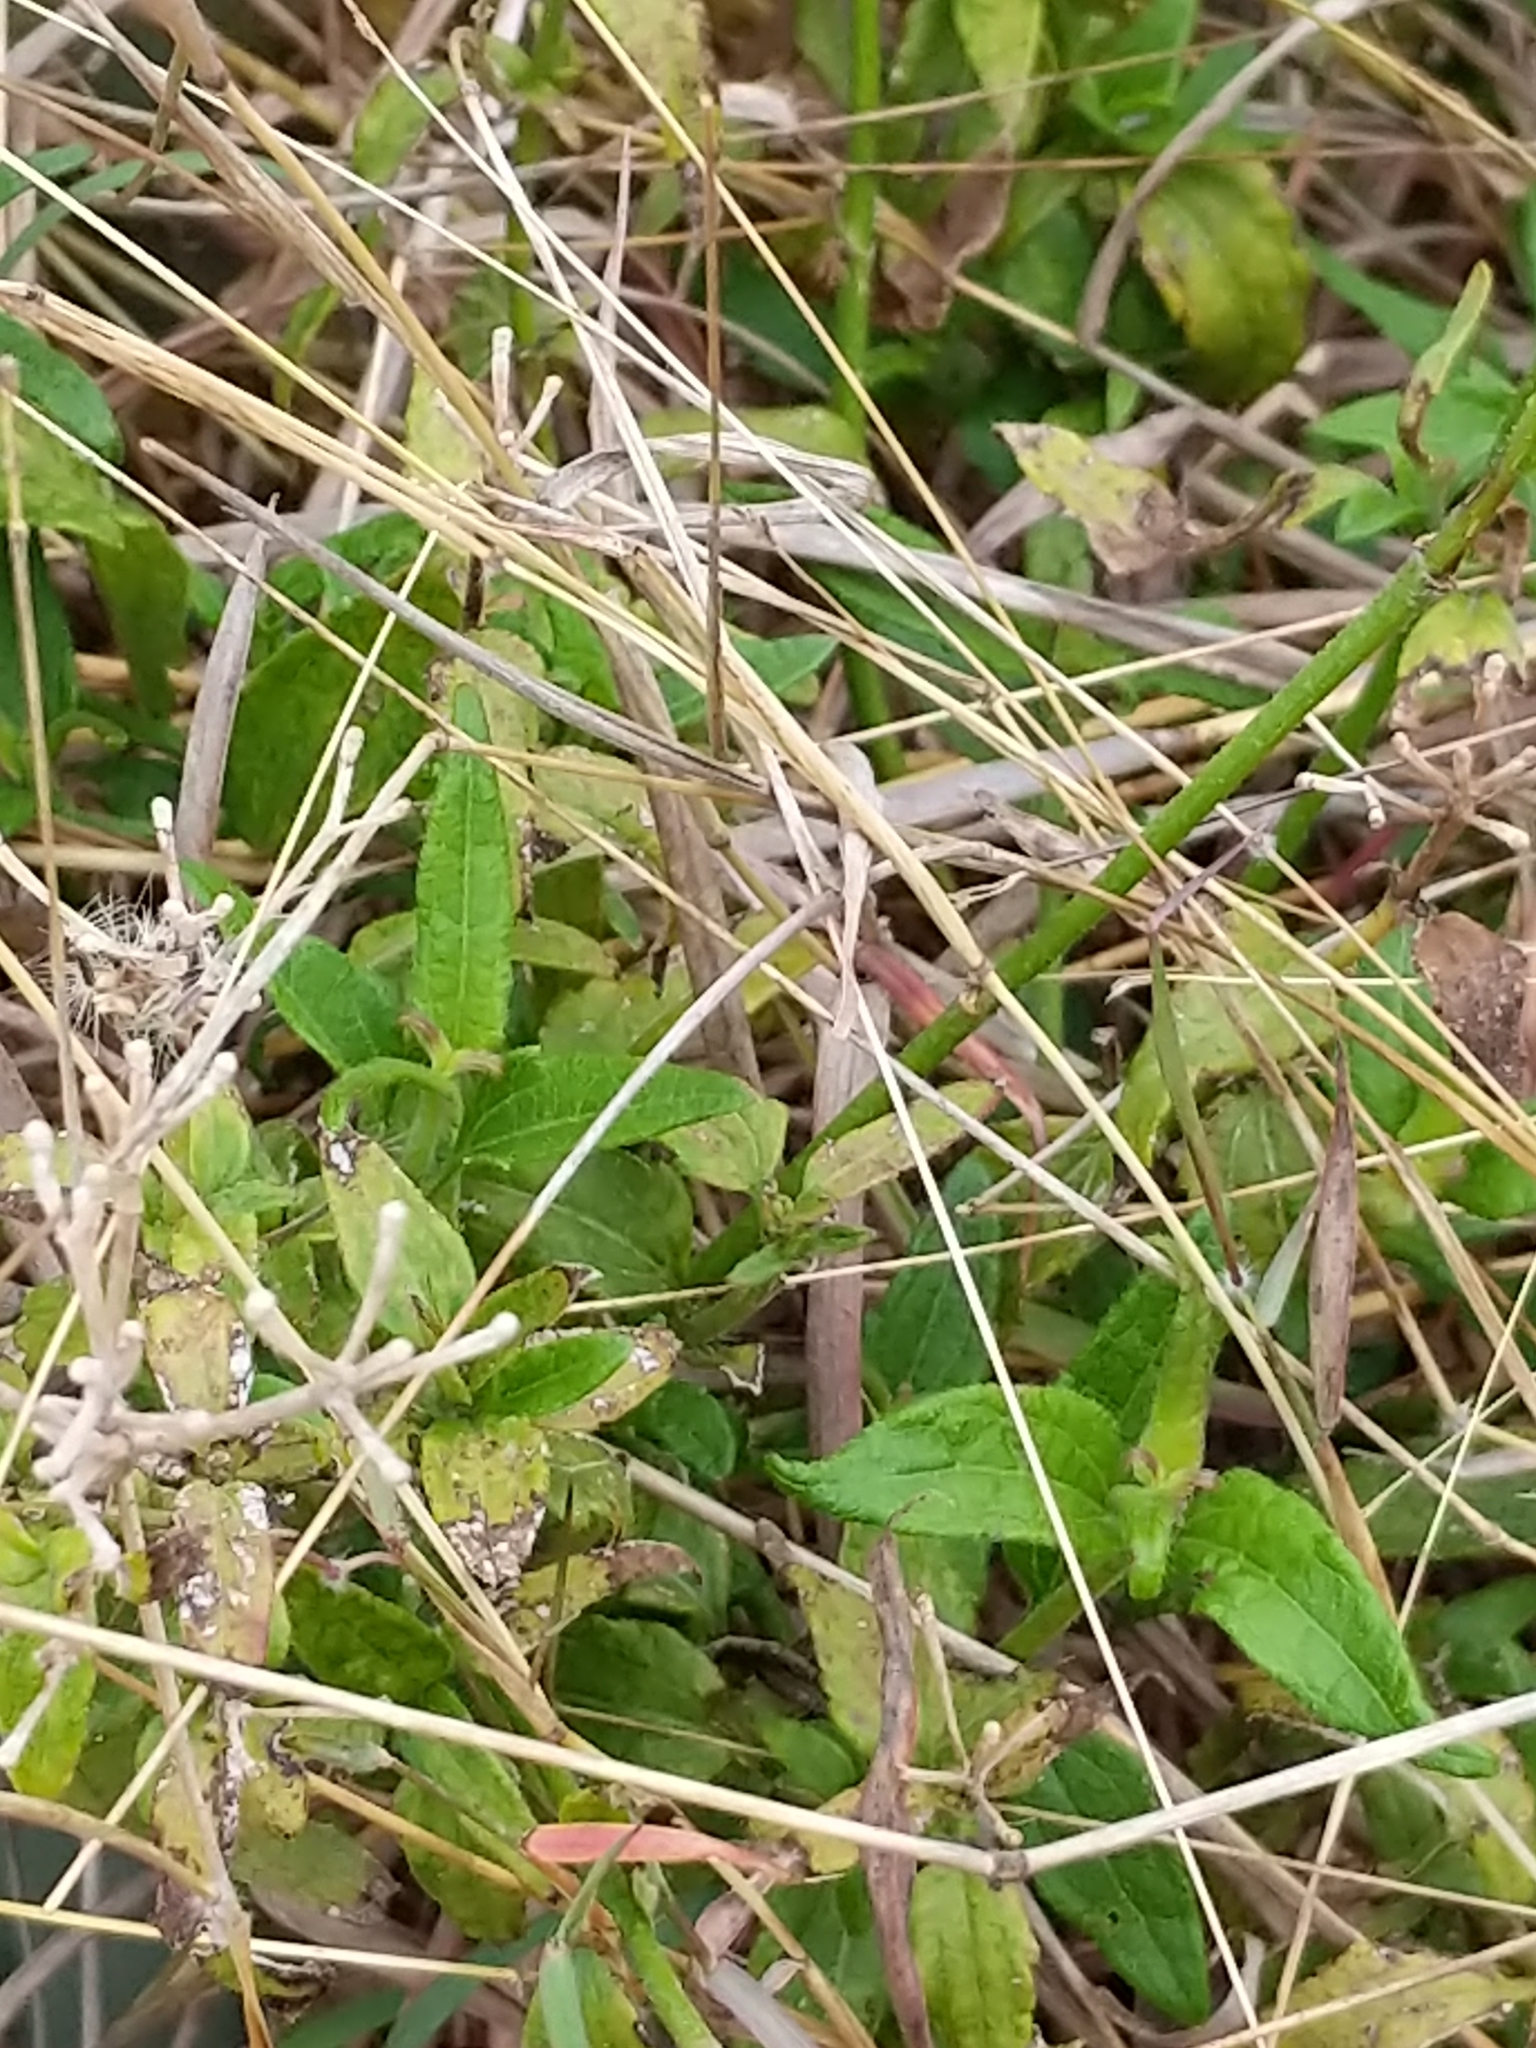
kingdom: Plantae
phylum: Tracheophyta
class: Magnoliopsida
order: Asterales
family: Asteraceae
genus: Chromolaena
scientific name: Chromolaena odorata
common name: Siamweed
